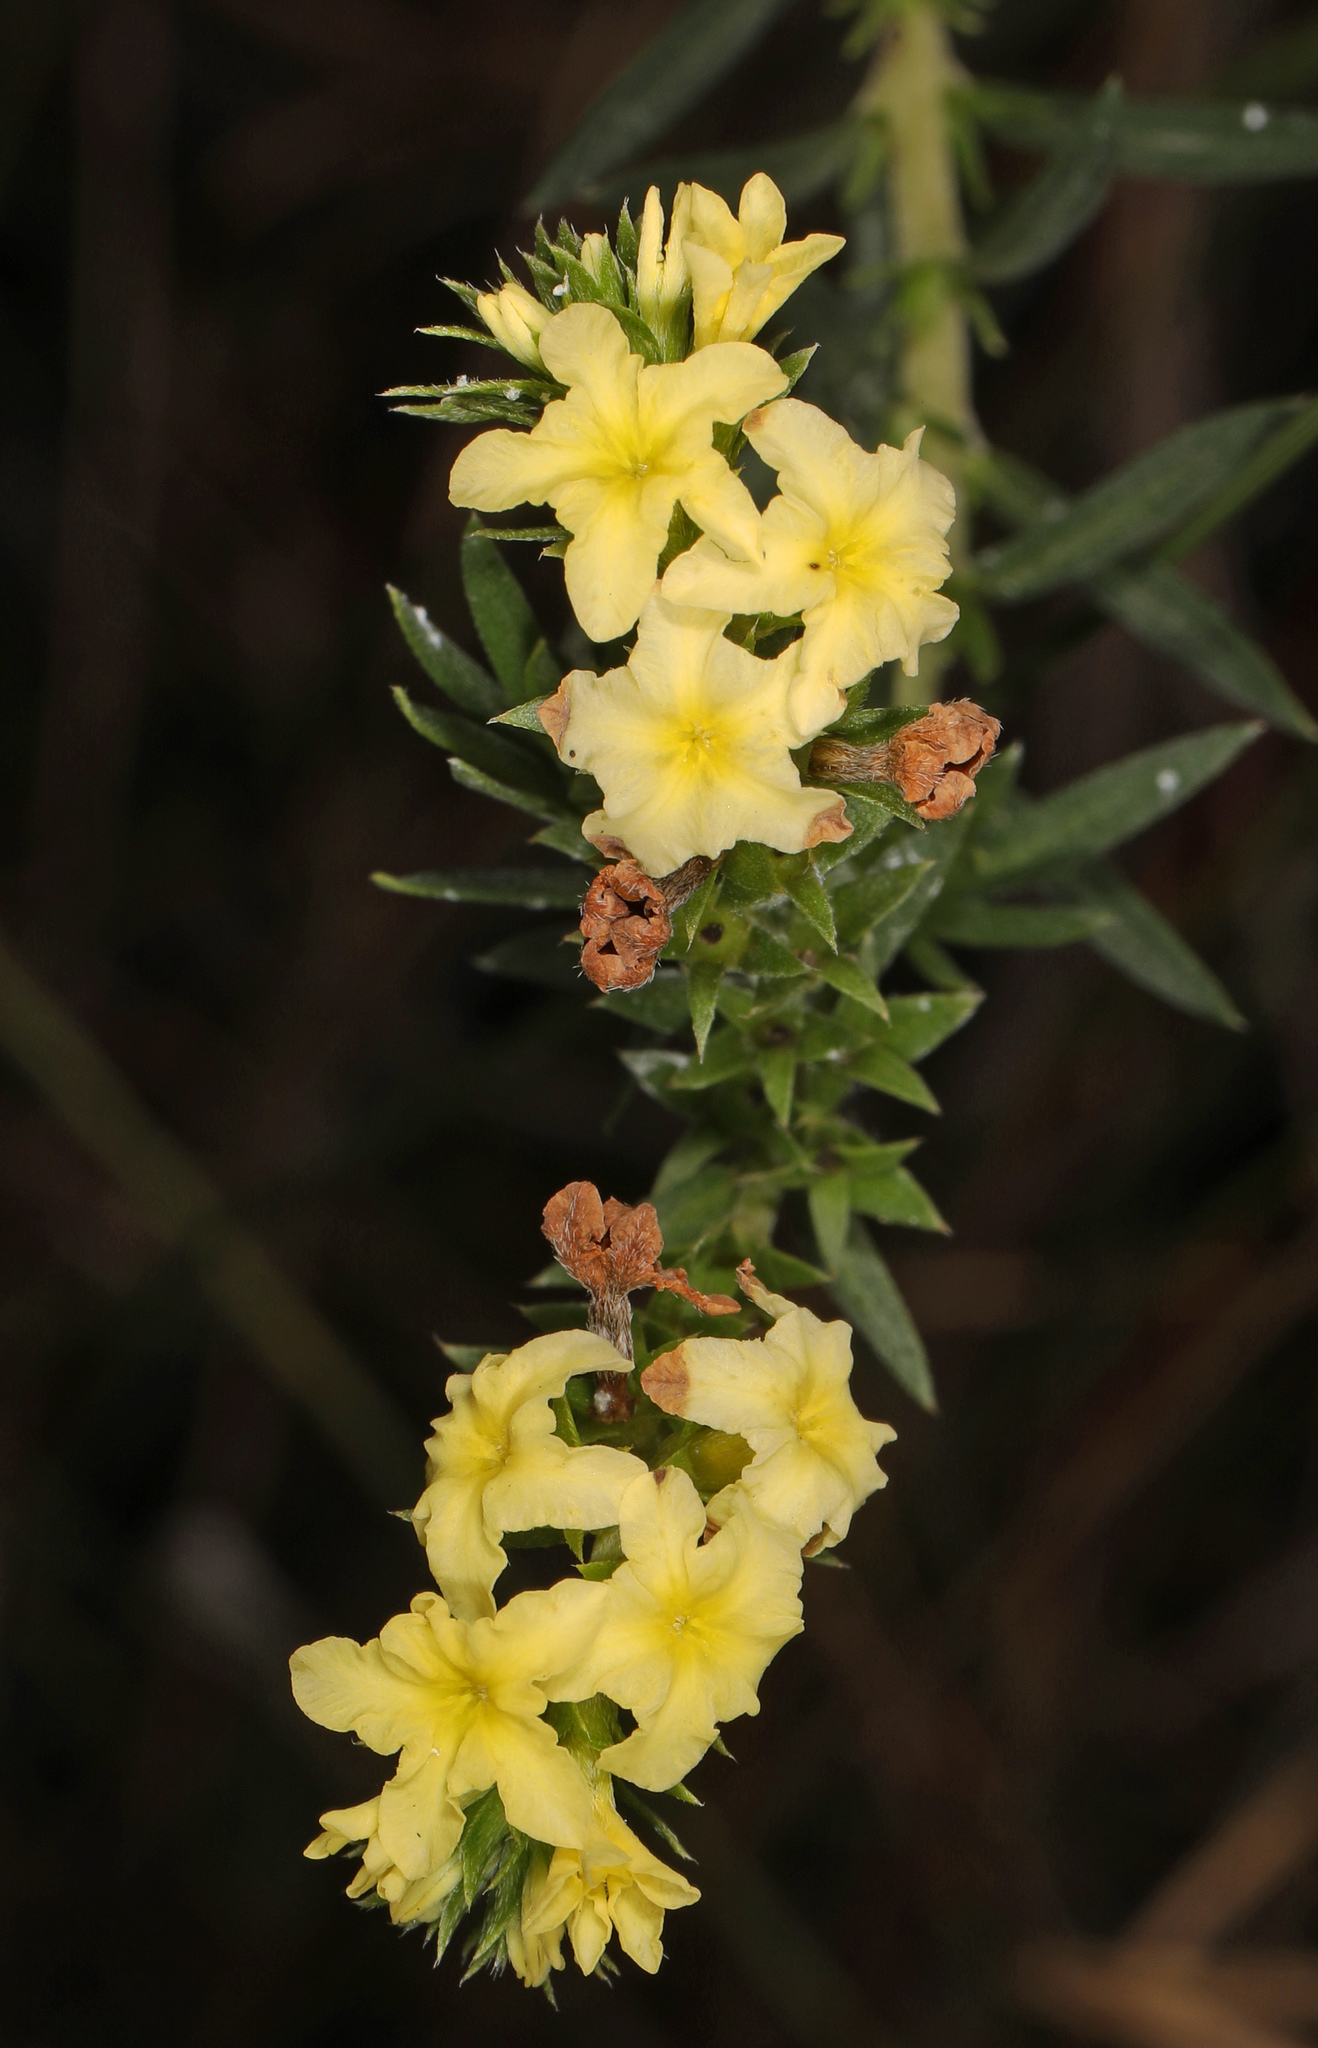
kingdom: Plantae
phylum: Tracheophyta
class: Magnoliopsida
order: Boraginales
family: Heliotropiaceae
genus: Euploca
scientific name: Euploca polyphylla
